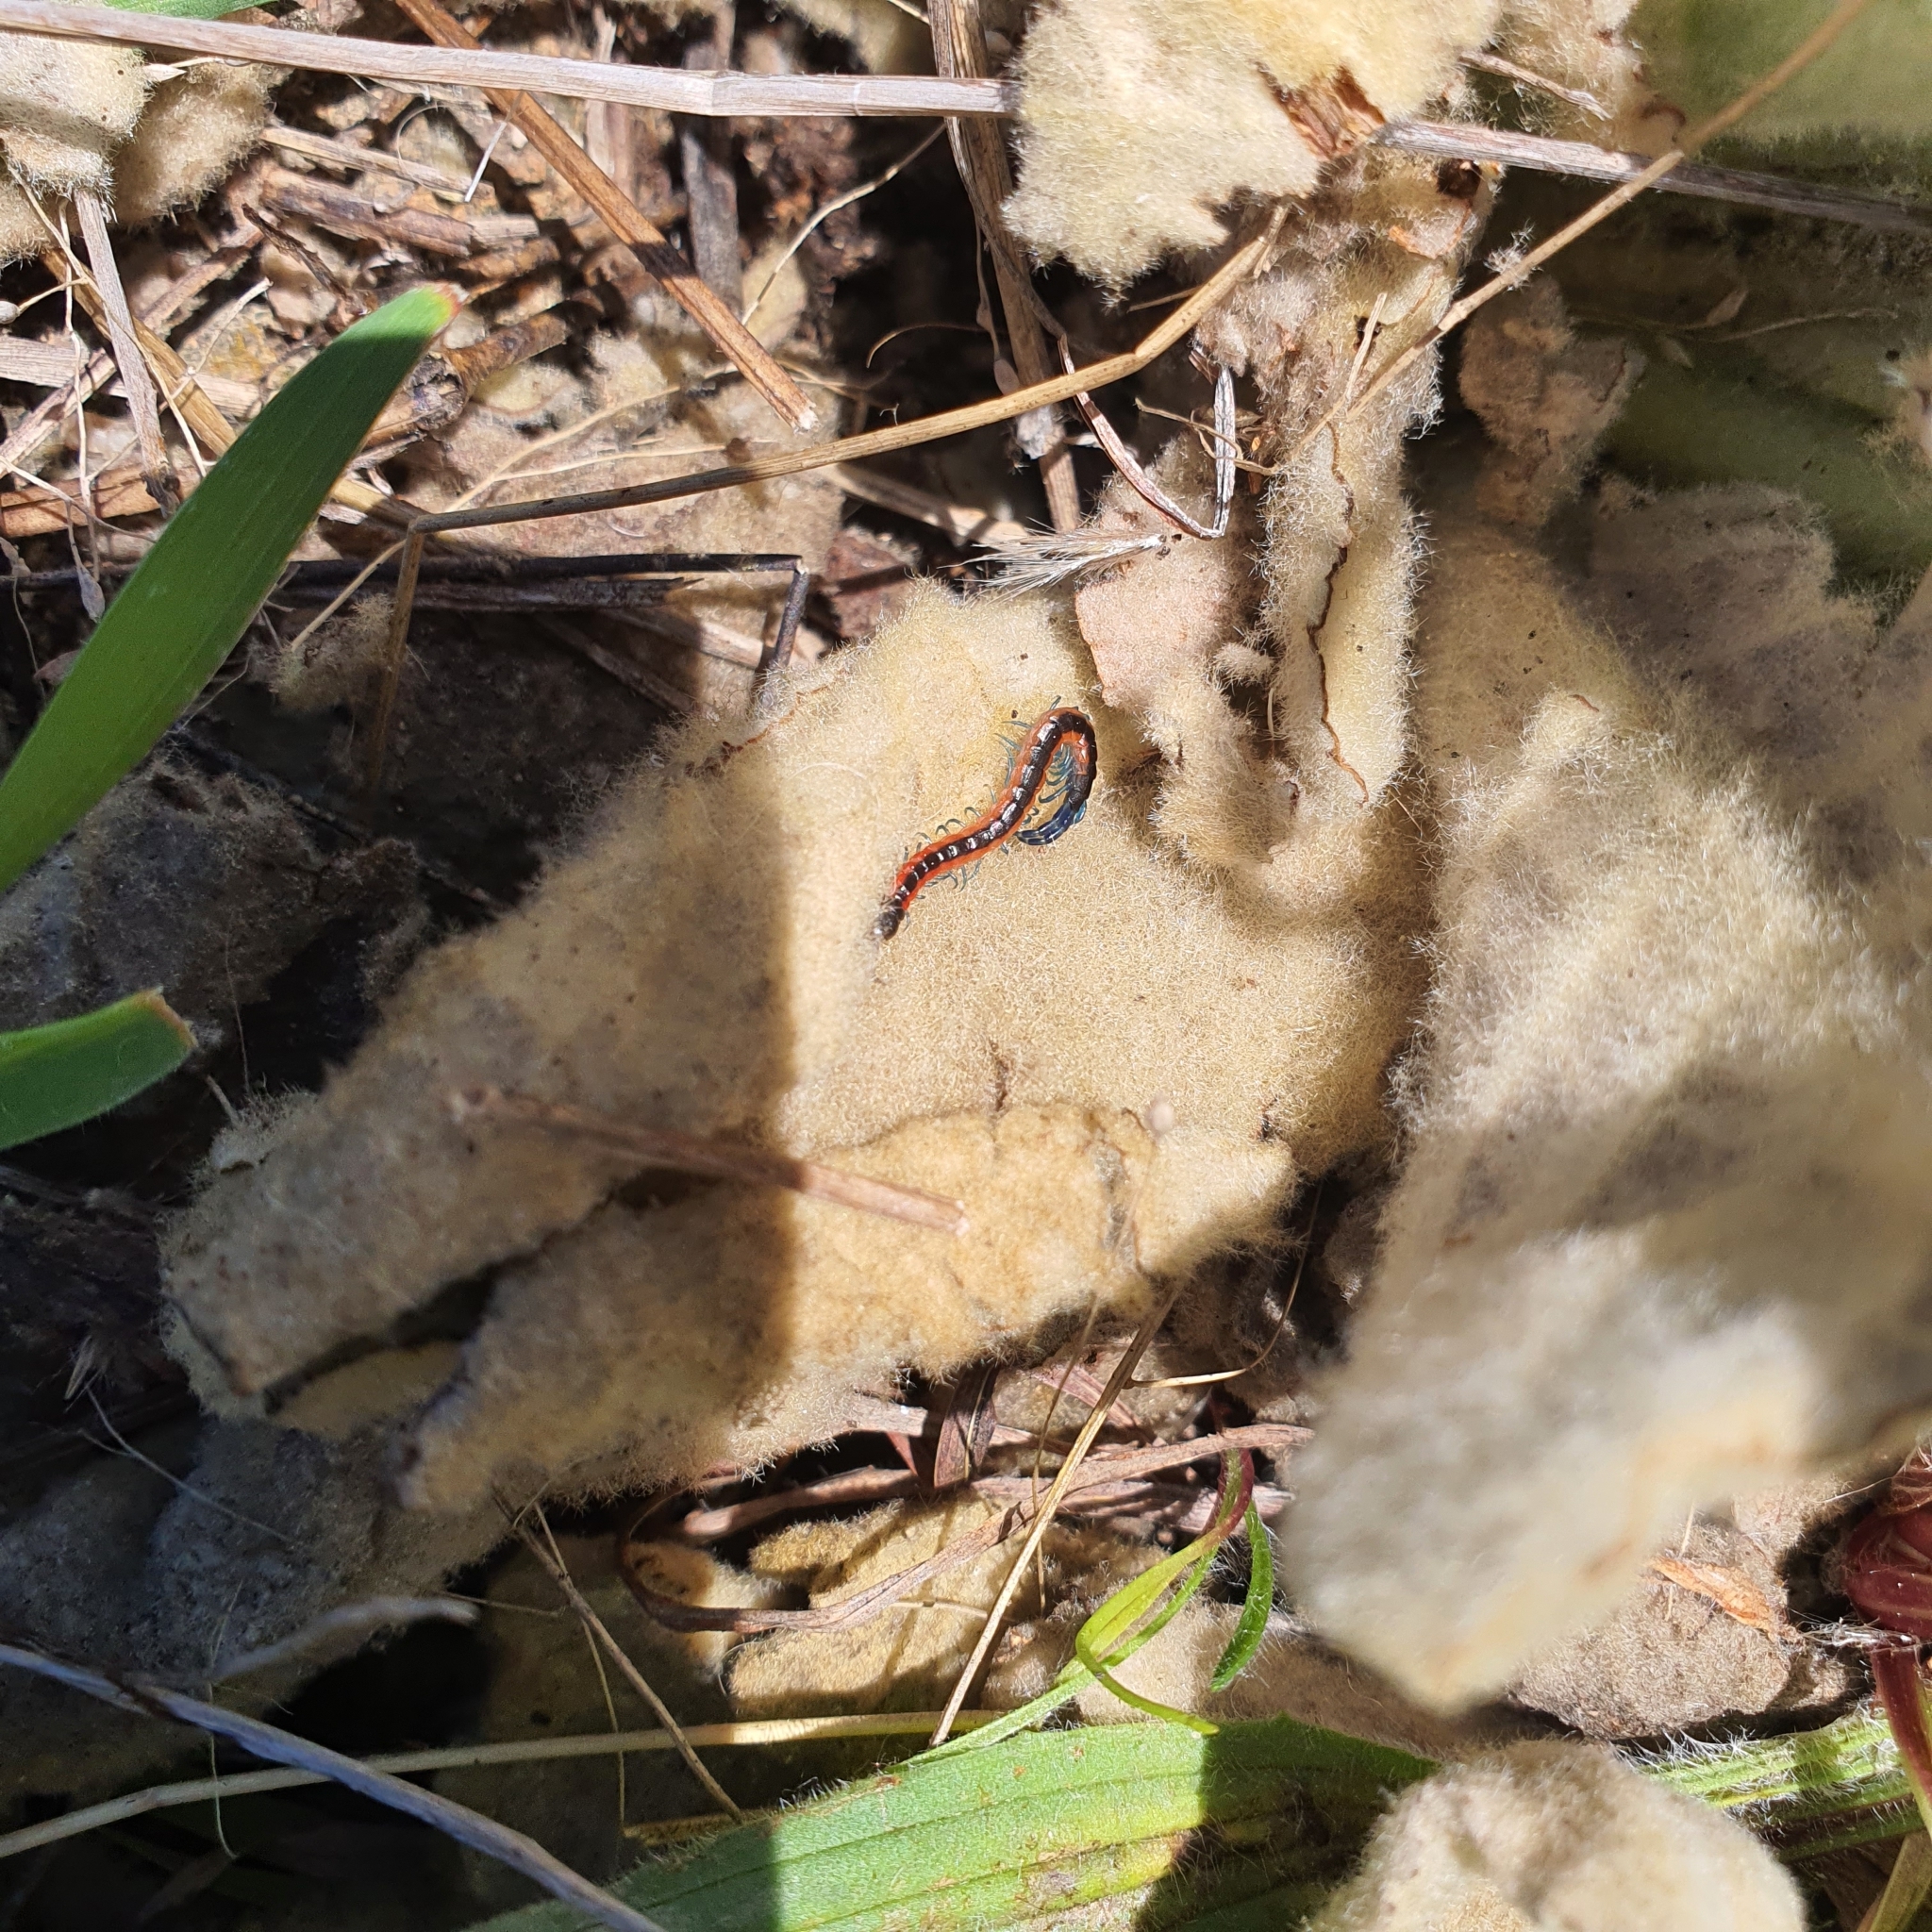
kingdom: Animalia
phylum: Arthropoda
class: Chilopoda
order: Scolopendromorpha
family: Scolopendridae
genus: Scolopendra
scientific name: Scolopendra laeta
